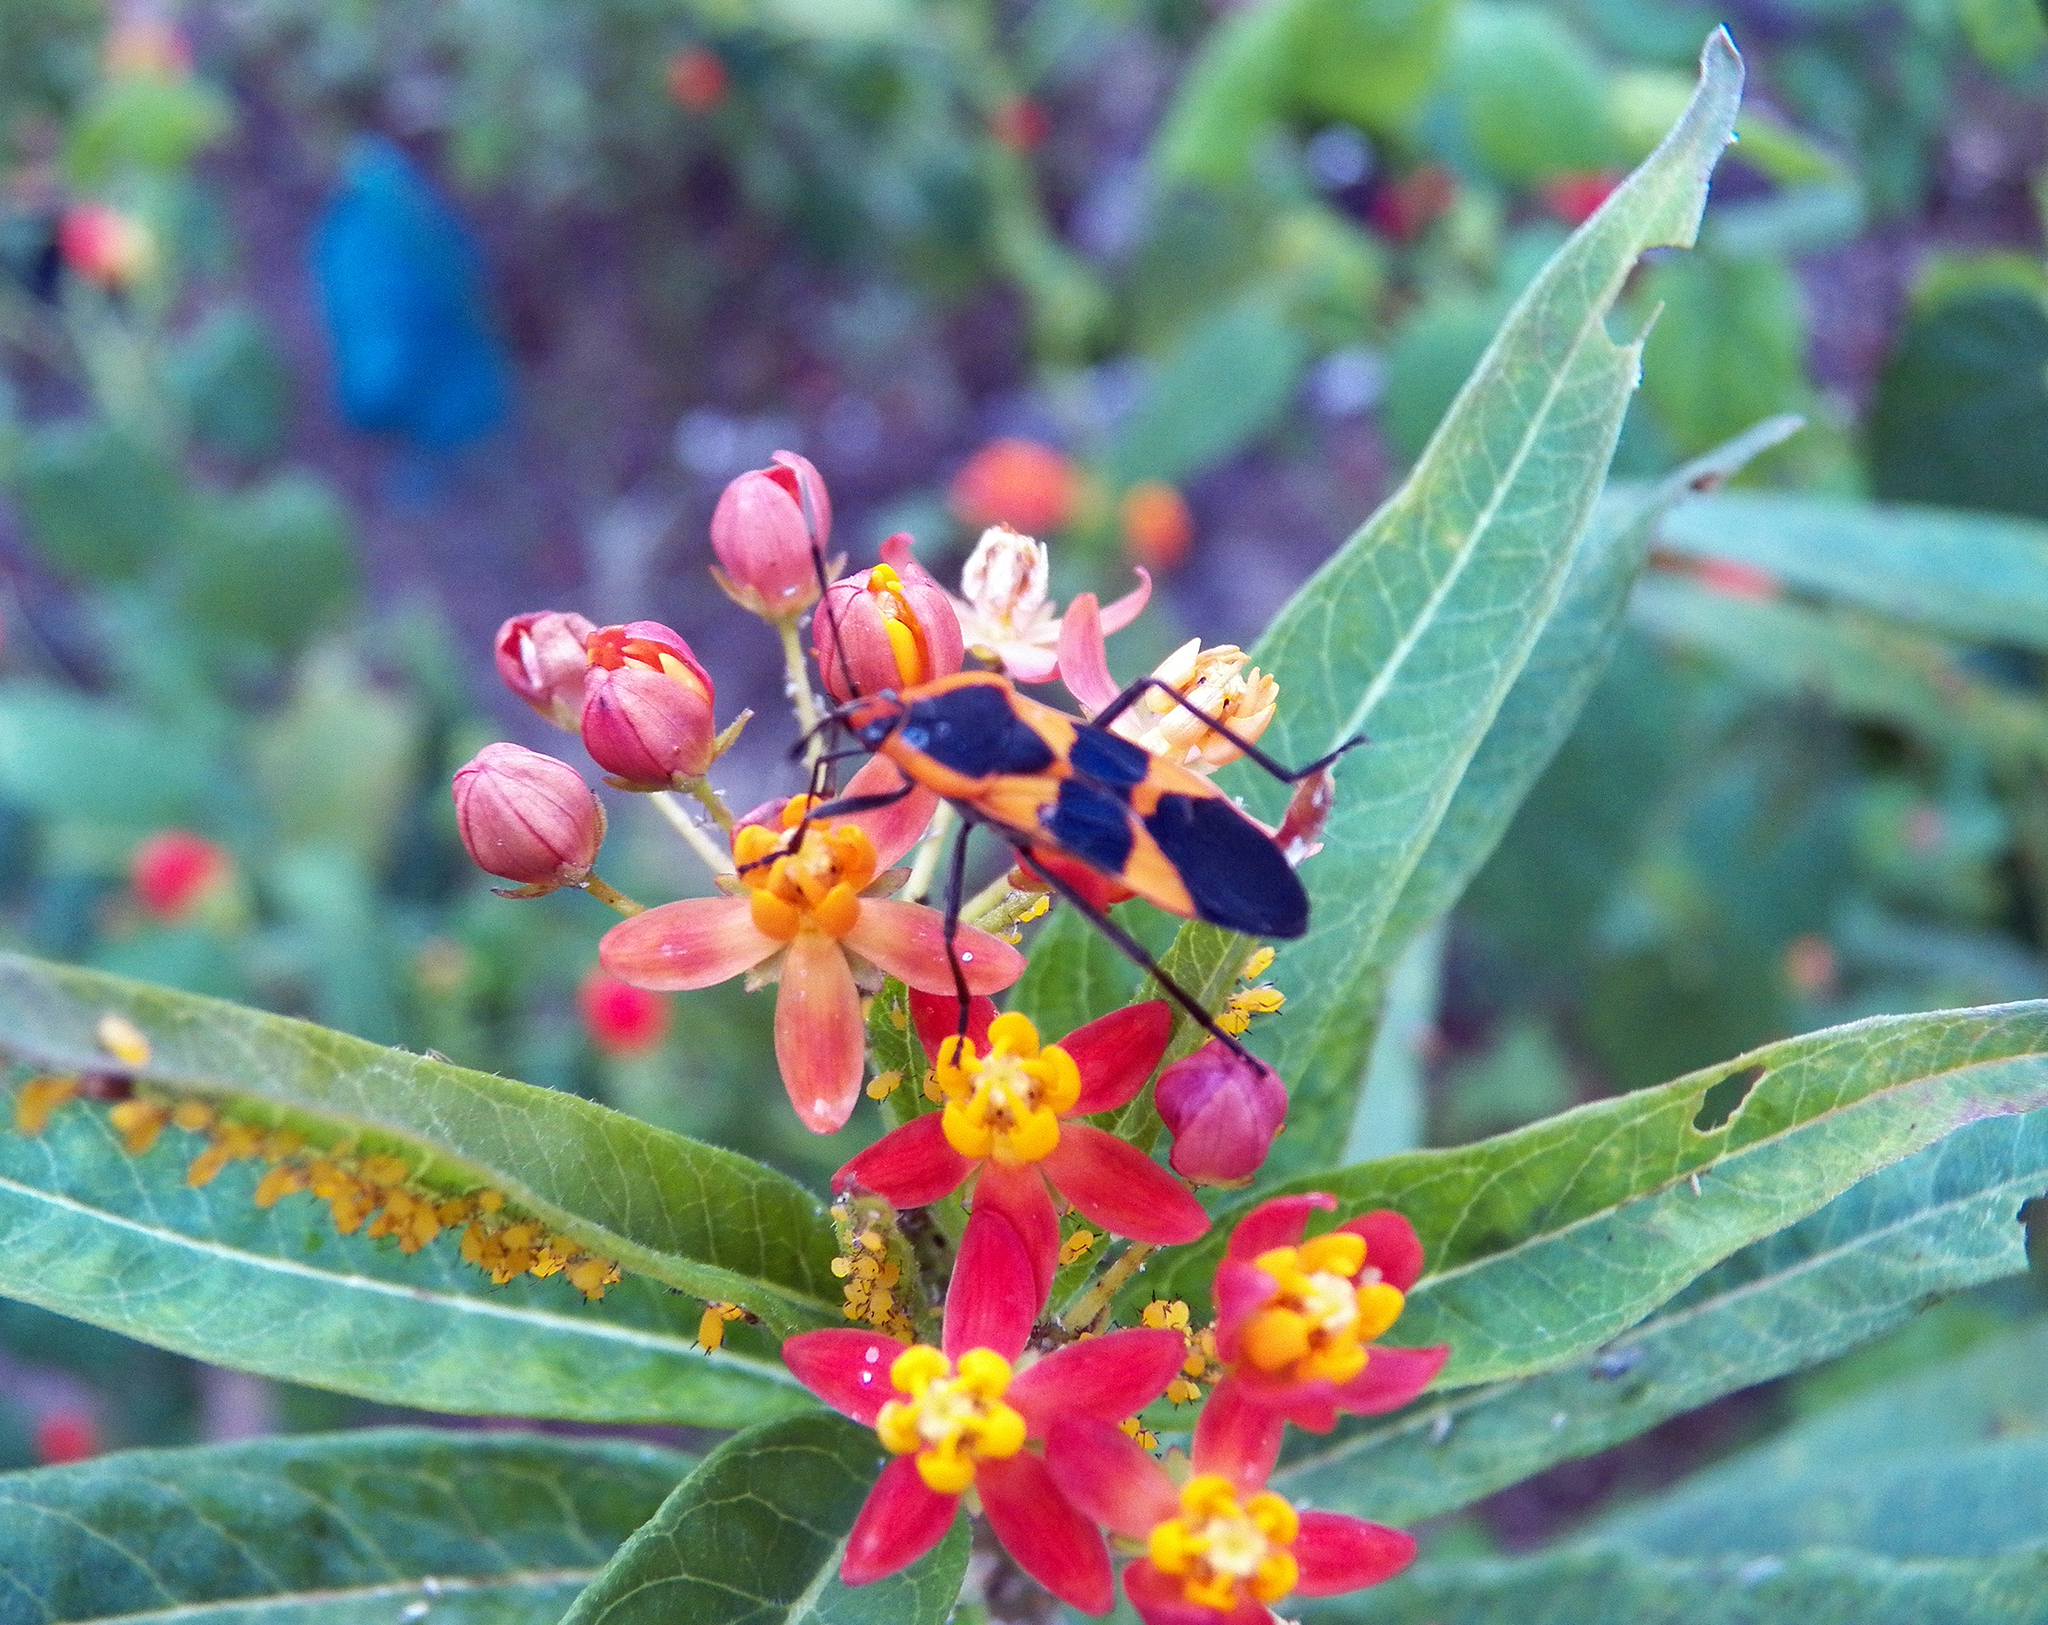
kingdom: Animalia
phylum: Arthropoda
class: Insecta
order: Hemiptera
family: Lygaeidae
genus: Oncopeltus
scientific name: Oncopeltus fasciatus
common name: Large milkweed bug
